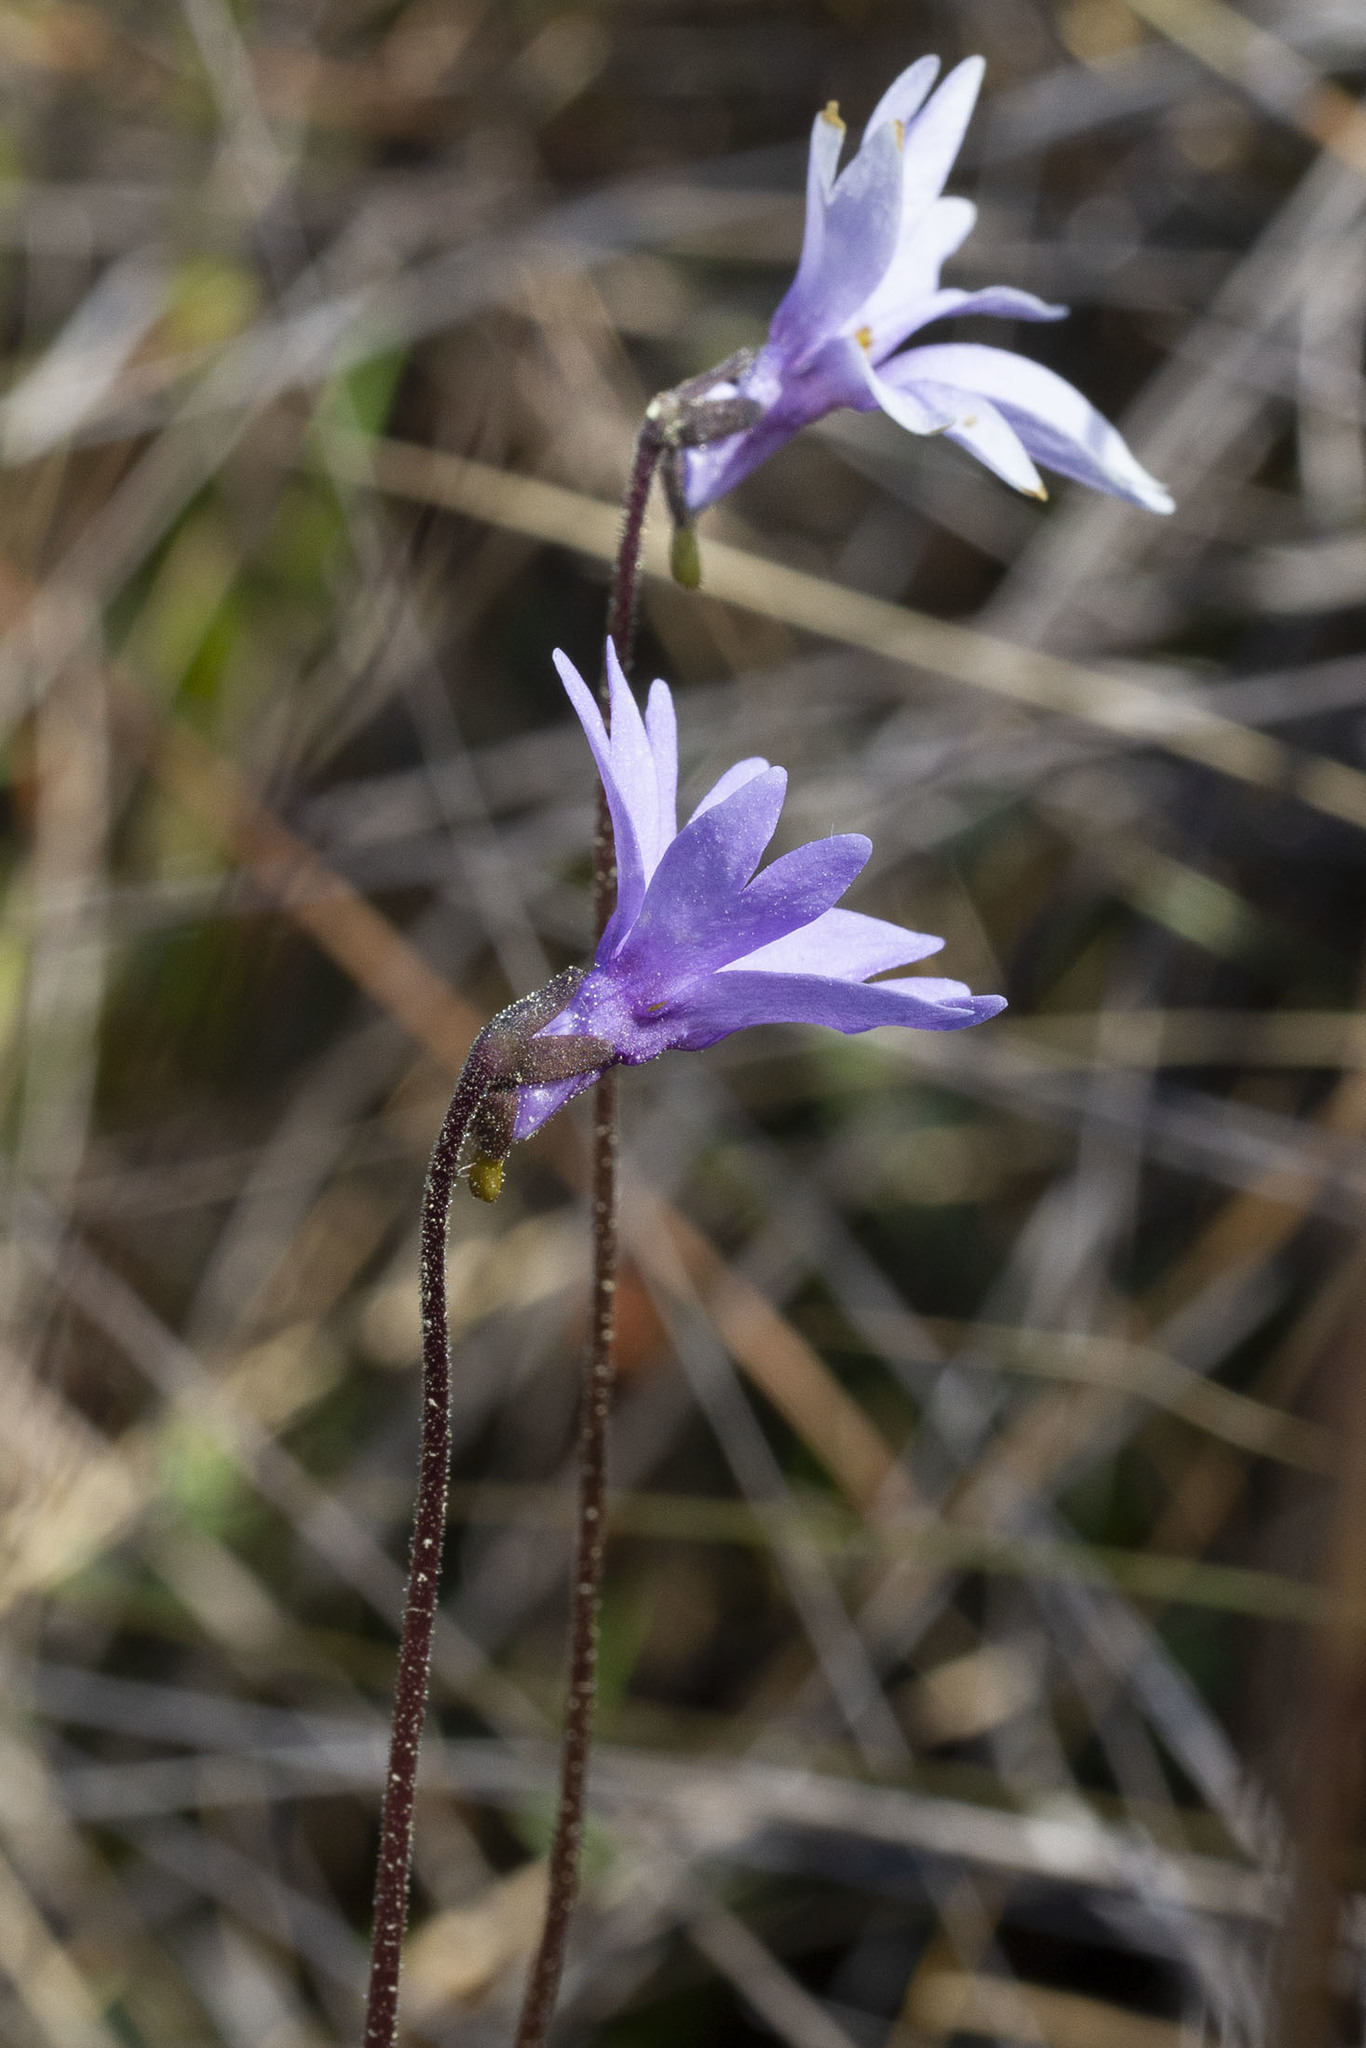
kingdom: Plantae
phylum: Tracheophyta
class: Magnoliopsida
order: Lamiales
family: Lentibulariaceae
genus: Pinguicula
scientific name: Pinguicula planifolia
